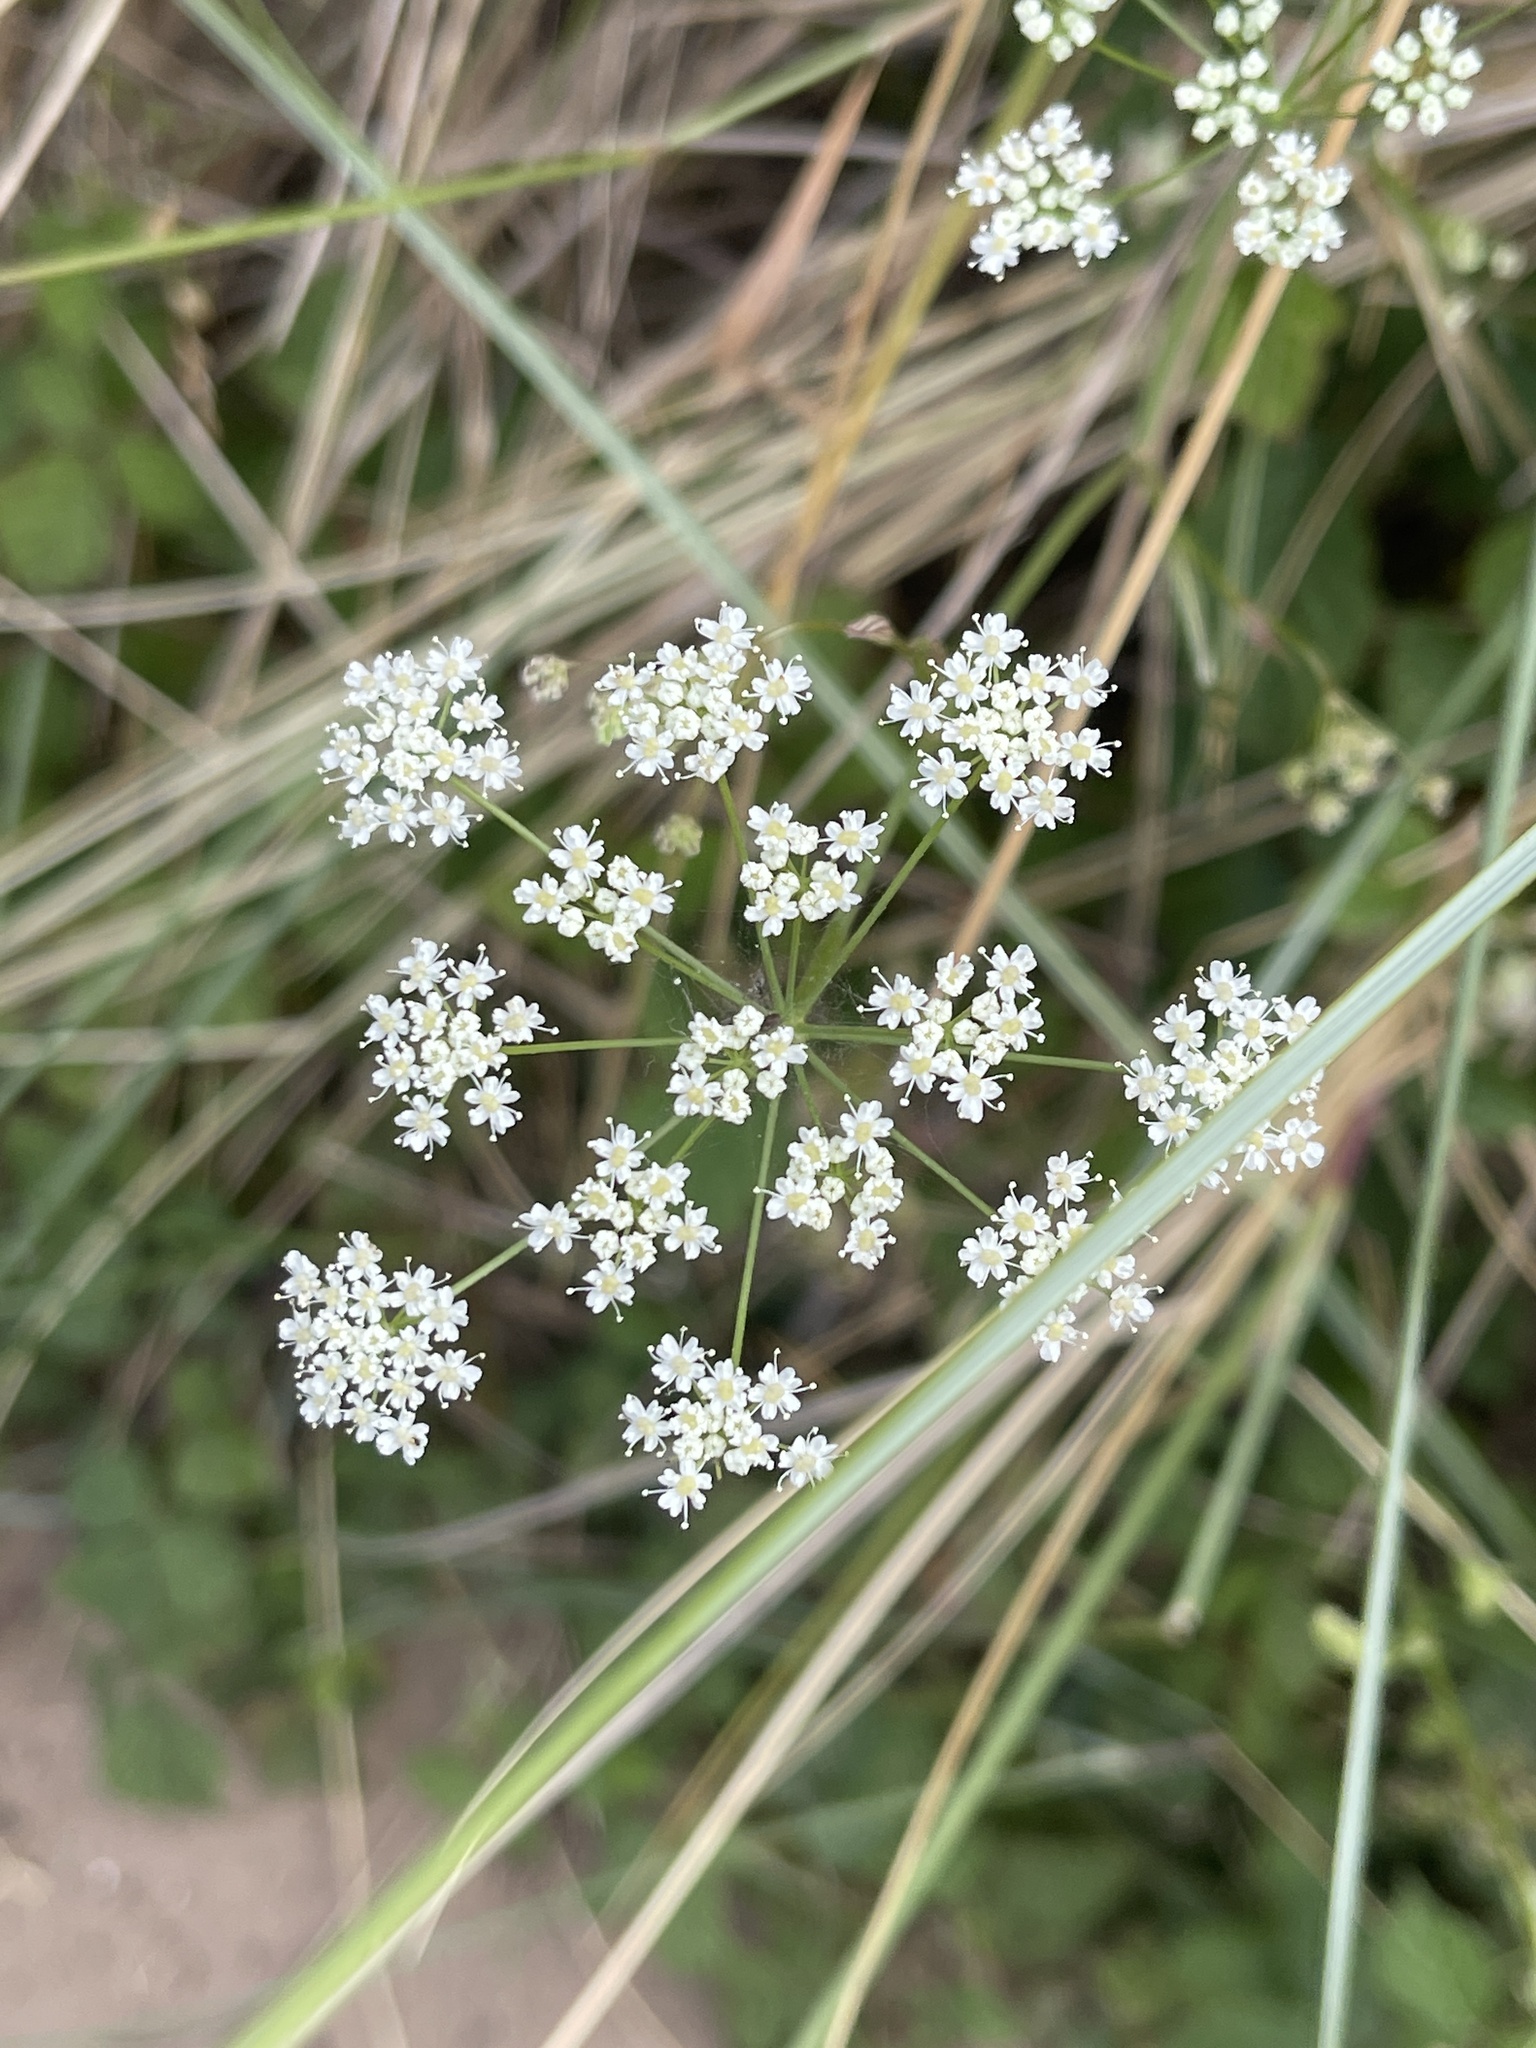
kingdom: Plantae
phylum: Tracheophyta
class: Magnoliopsida
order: Apiales
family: Apiaceae
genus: Pimpinella
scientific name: Pimpinella saxifraga
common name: Burnet-saxifrage
